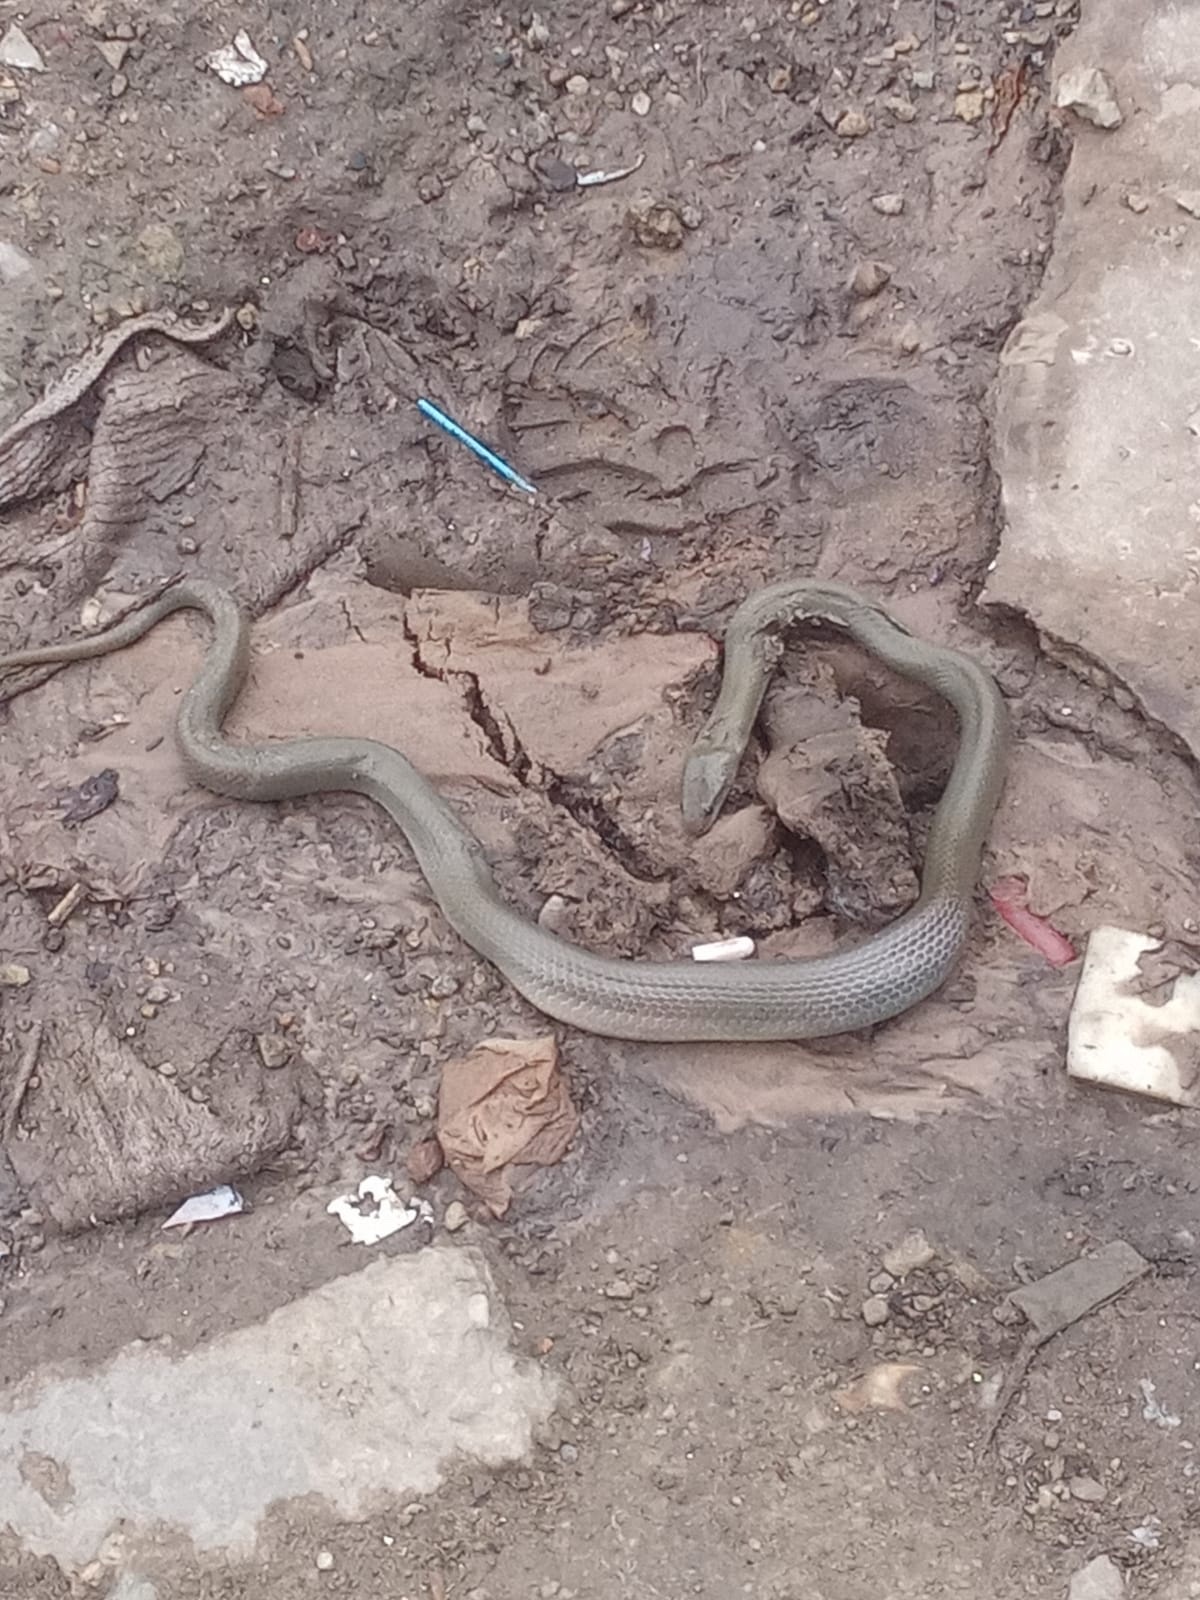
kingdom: Animalia
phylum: Chordata
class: Squamata
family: Lamprophiidae
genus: Lycodonomorphus
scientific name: Lycodonomorphus inornatus
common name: Black house snake
